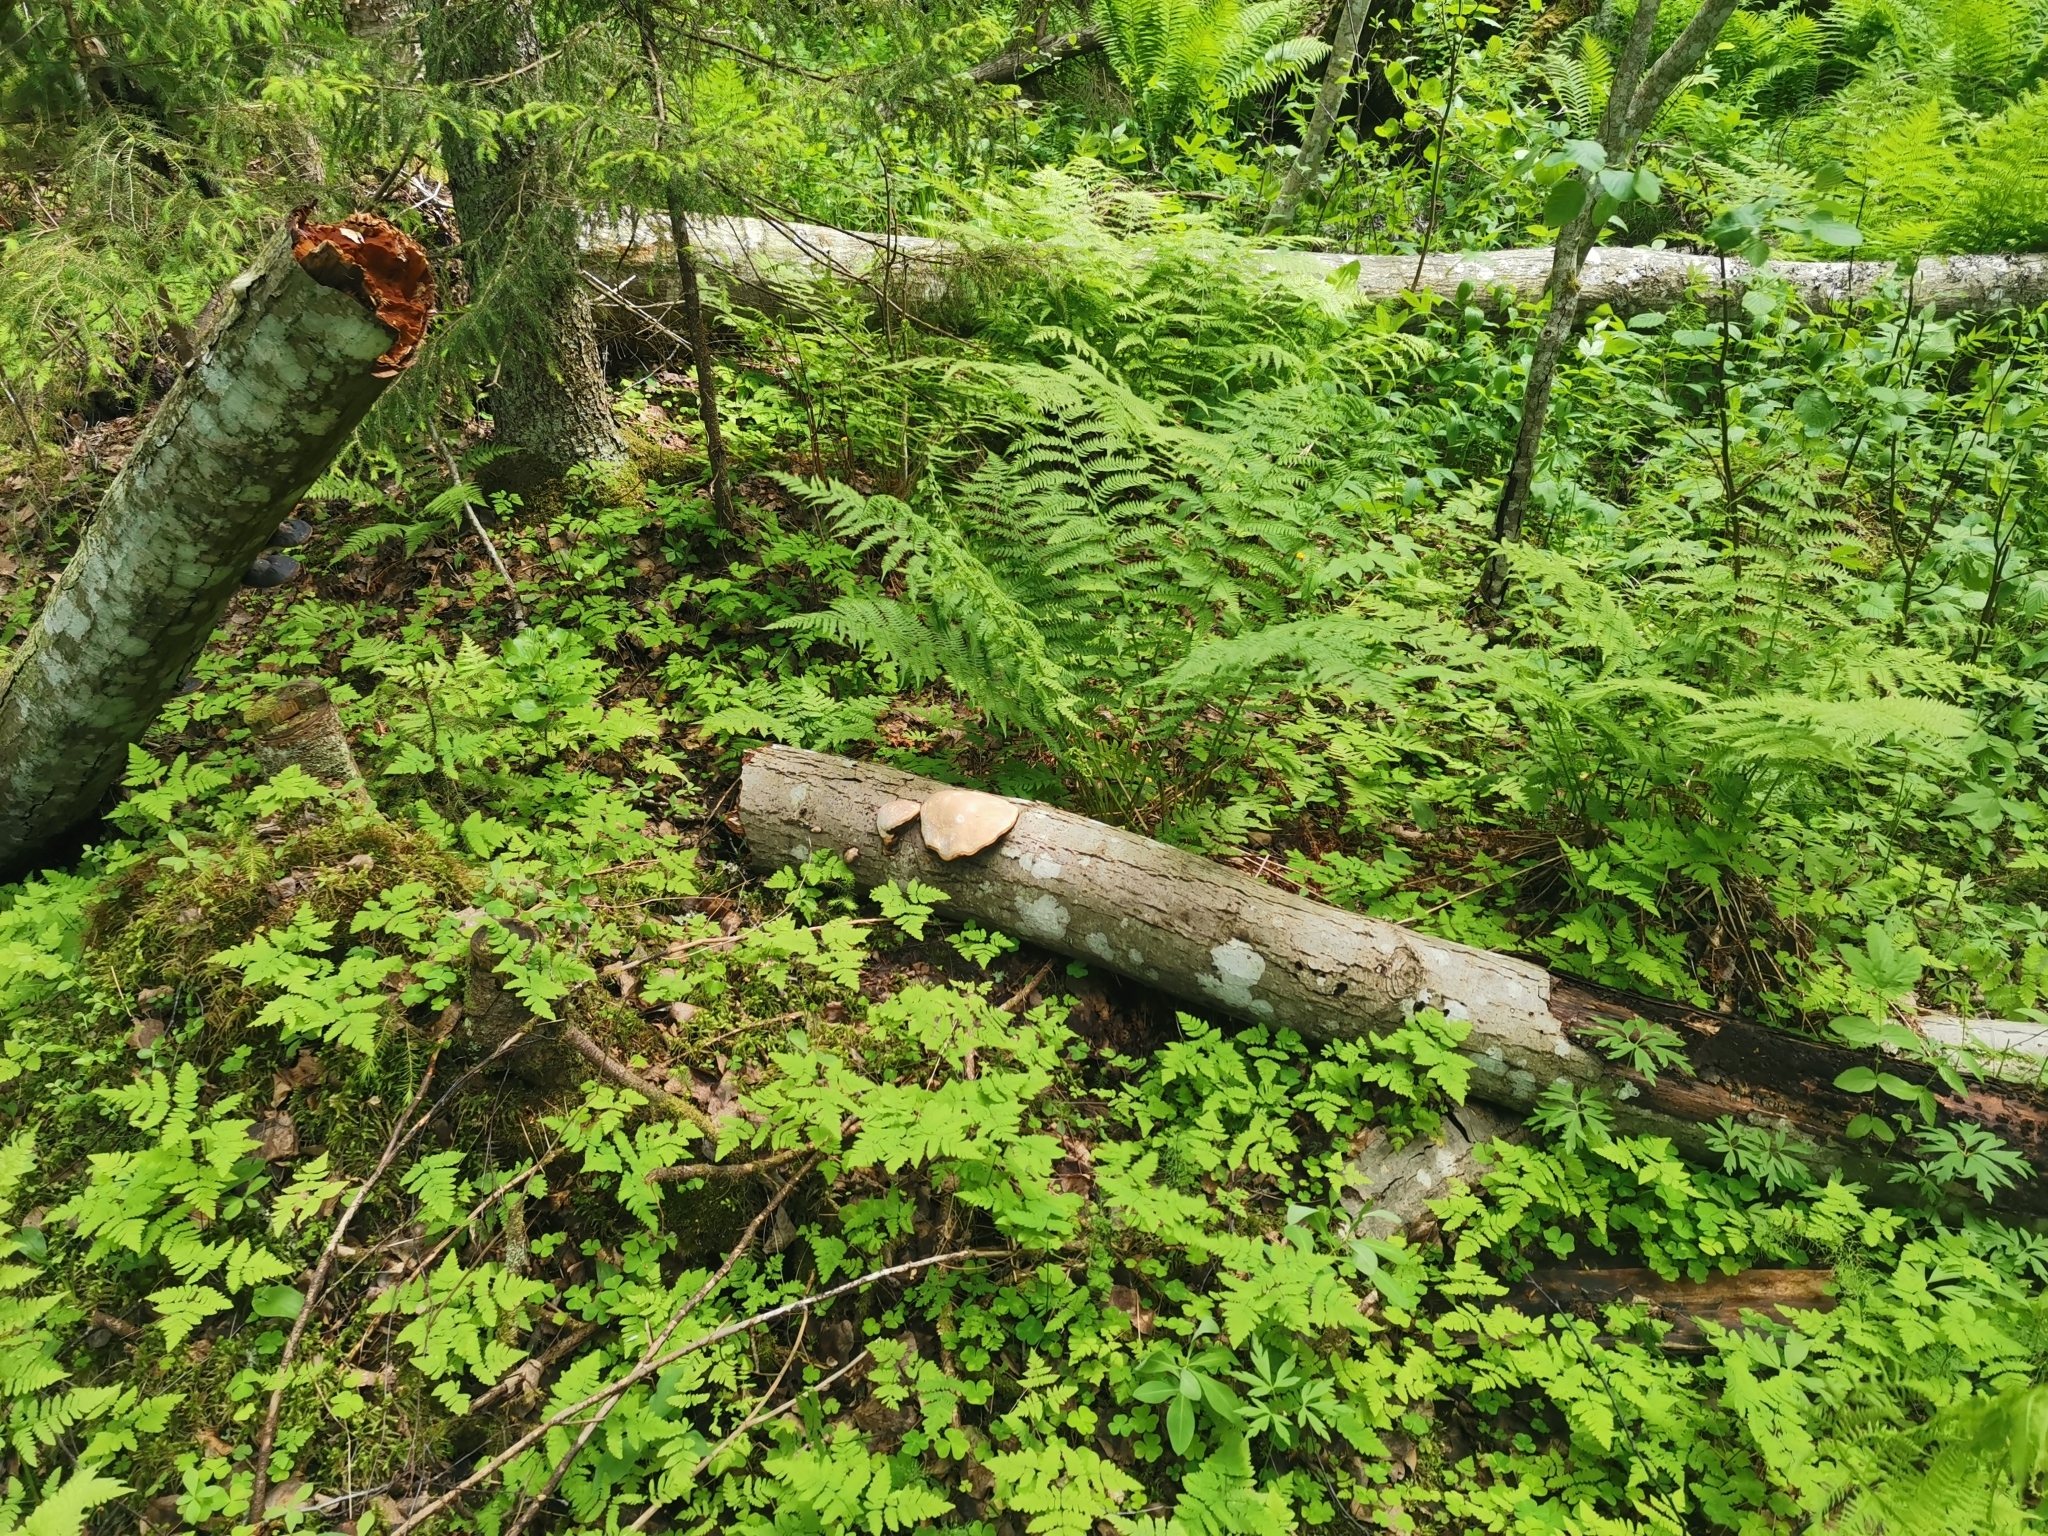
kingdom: Fungi
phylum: Basidiomycota
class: Agaricomycetes
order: Polyporales
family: Fomitopsidaceae
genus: Fomitopsis
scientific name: Fomitopsis pinicola
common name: Red-belted bracket
